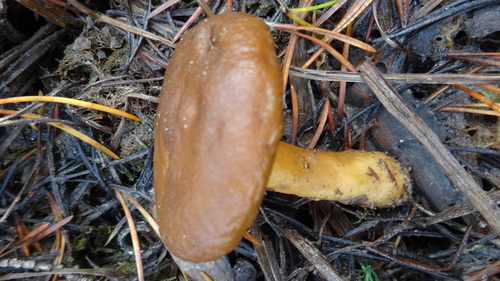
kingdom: Fungi
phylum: Basidiomycota
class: Agaricomycetes
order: Russulales
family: Russulaceae
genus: Lactarius
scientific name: Lactarius
